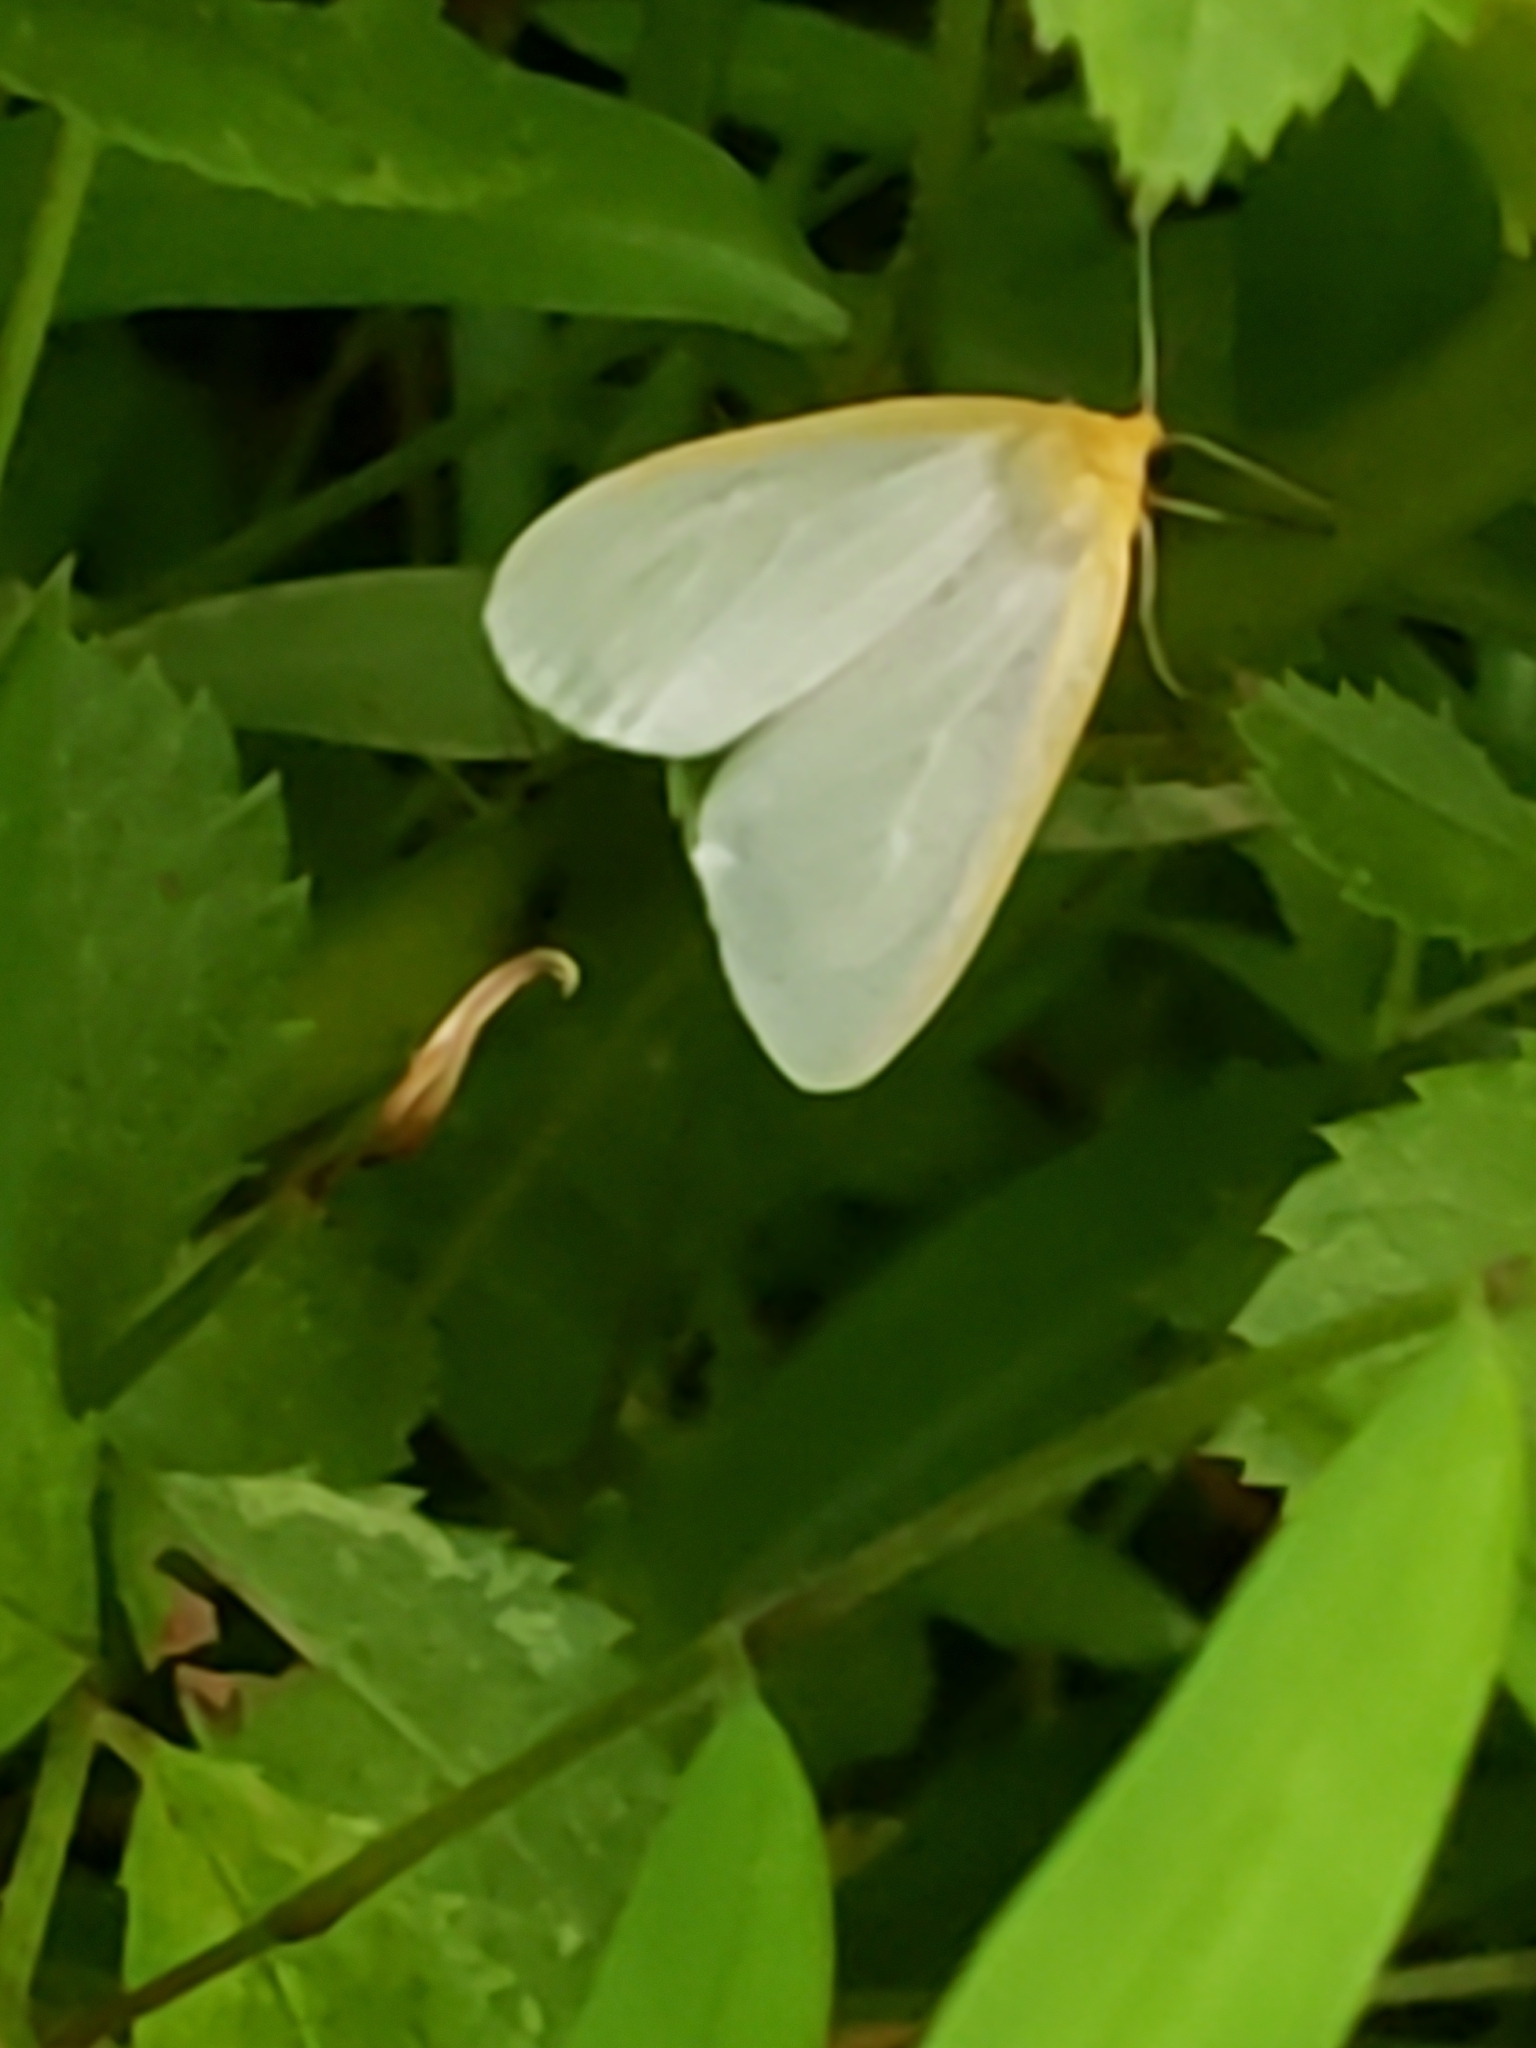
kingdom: Animalia
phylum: Arthropoda
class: Insecta
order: Lepidoptera
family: Erebidae
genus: Cycnia
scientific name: Cycnia tenera
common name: Delicate cycnia moth
